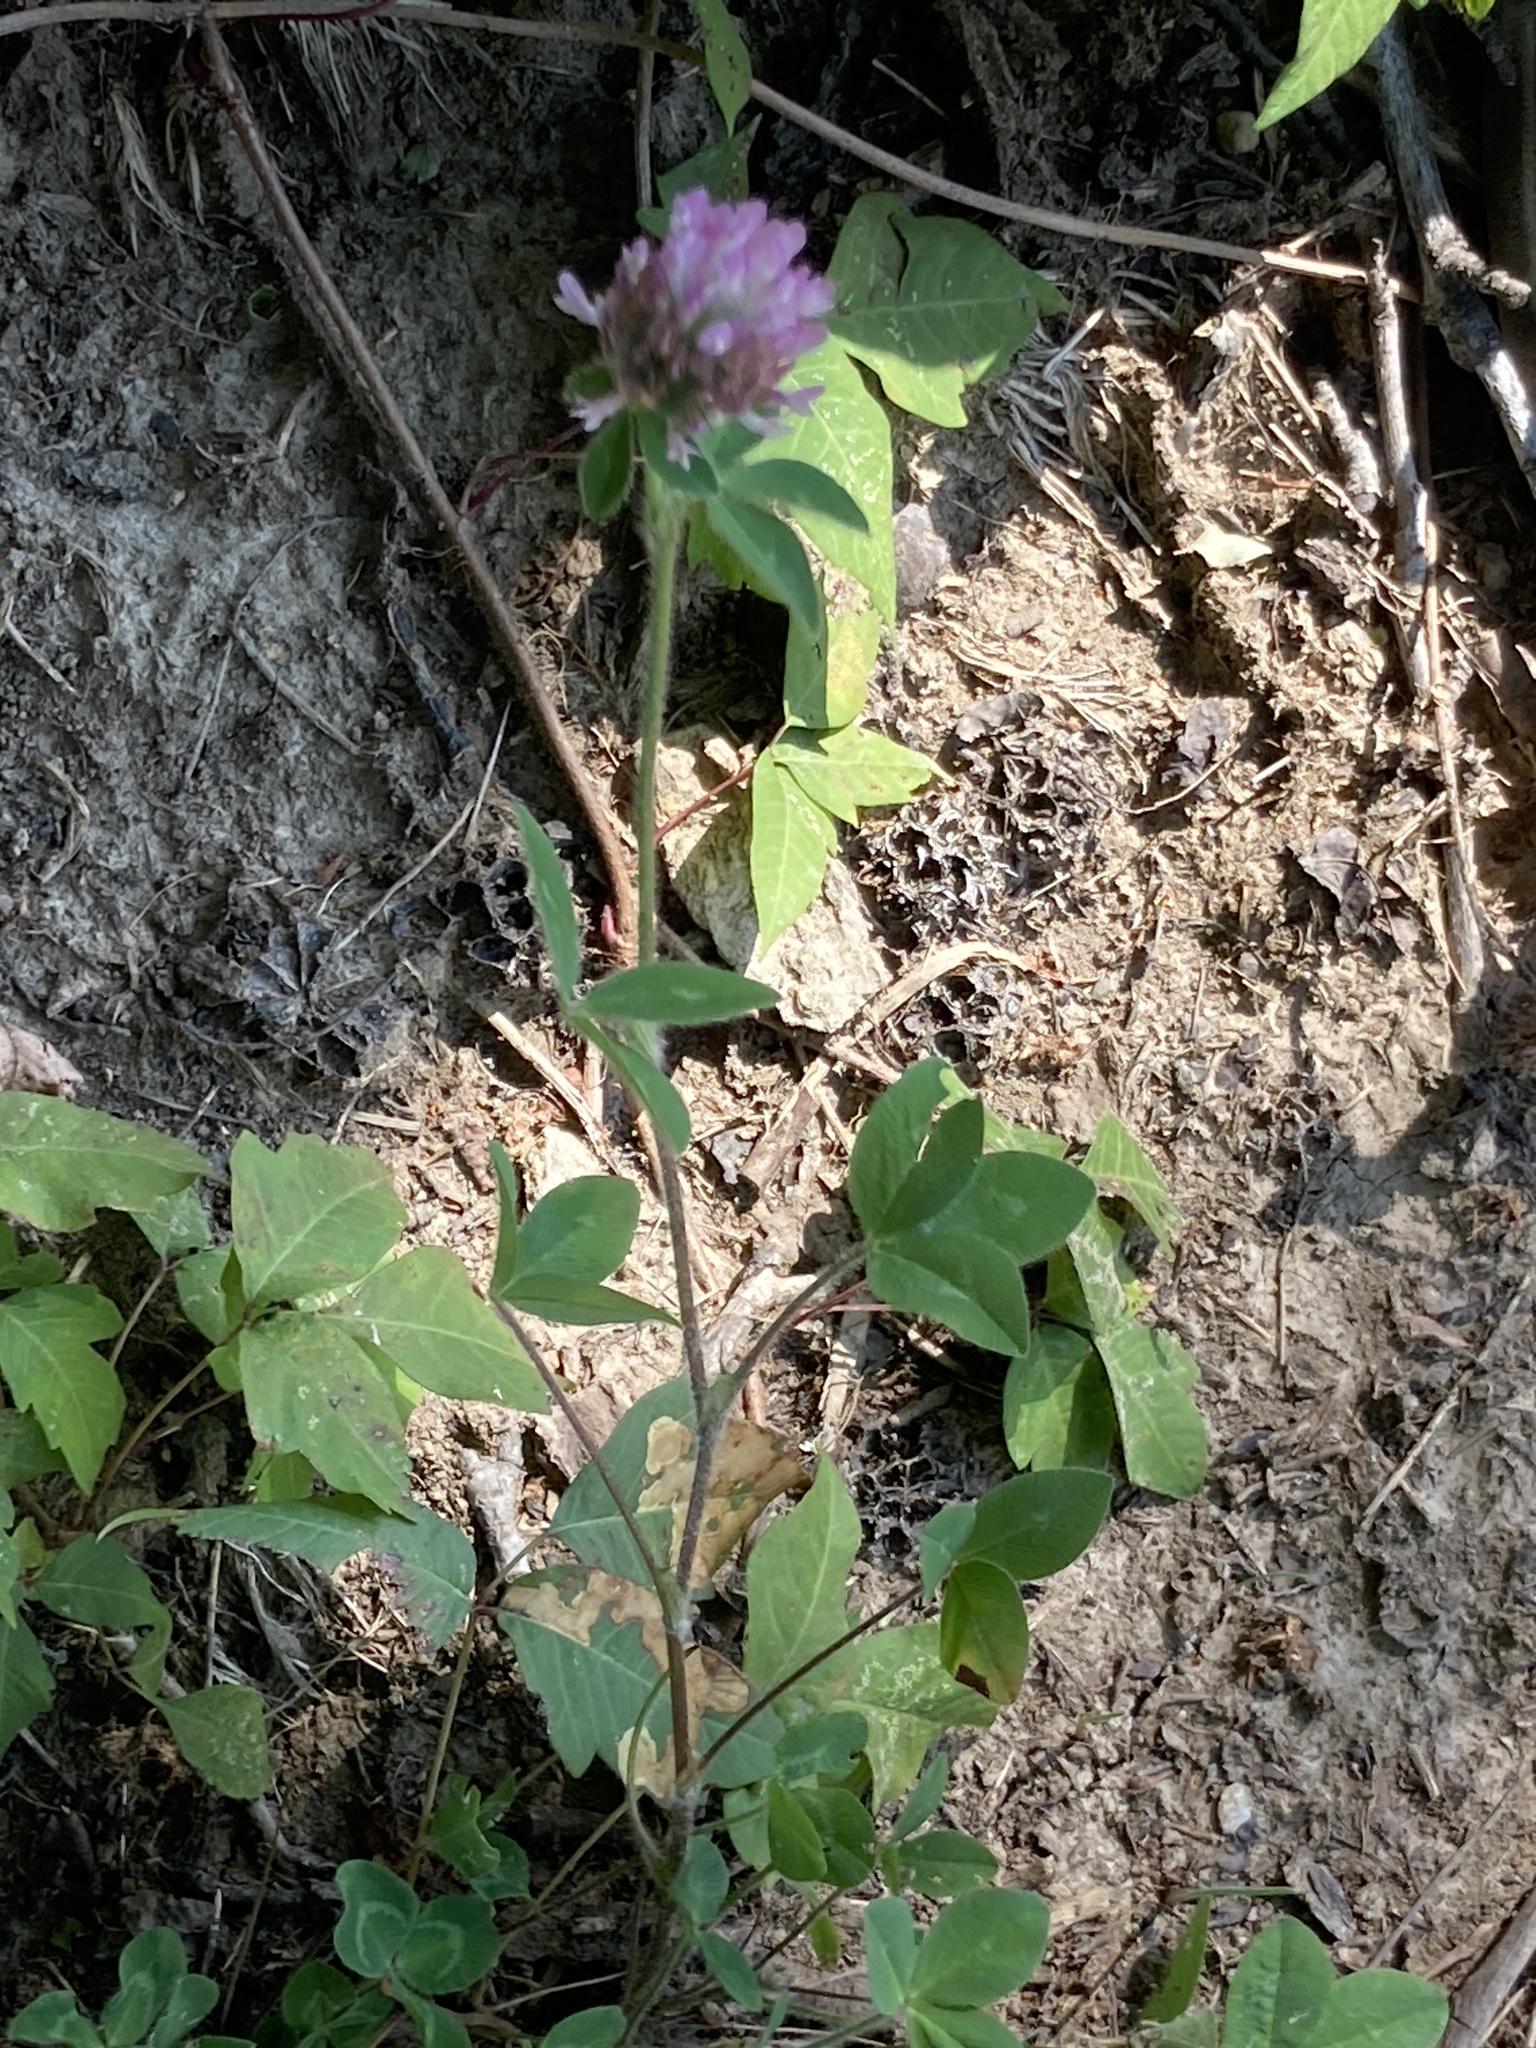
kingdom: Plantae
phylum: Tracheophyta
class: Magnoliopsida
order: Fabales
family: Fabaceae
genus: Trifolium
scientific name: Trifolium pratense
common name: Red clover
